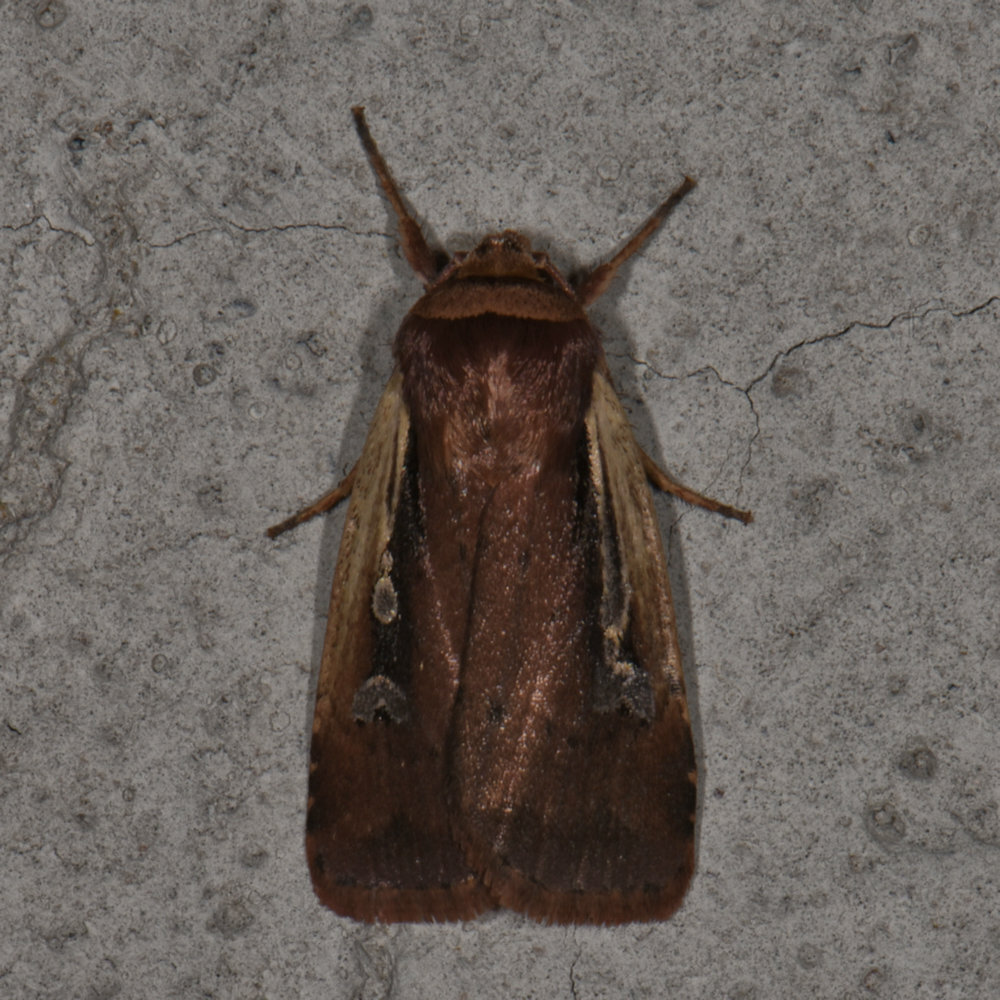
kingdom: Animalia
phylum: Arthropoda
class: Insecta
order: Lepidoptera
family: Noctuidae
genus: Ochropleura
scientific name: Ochropleura implecta
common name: Flame-shouldered dart
